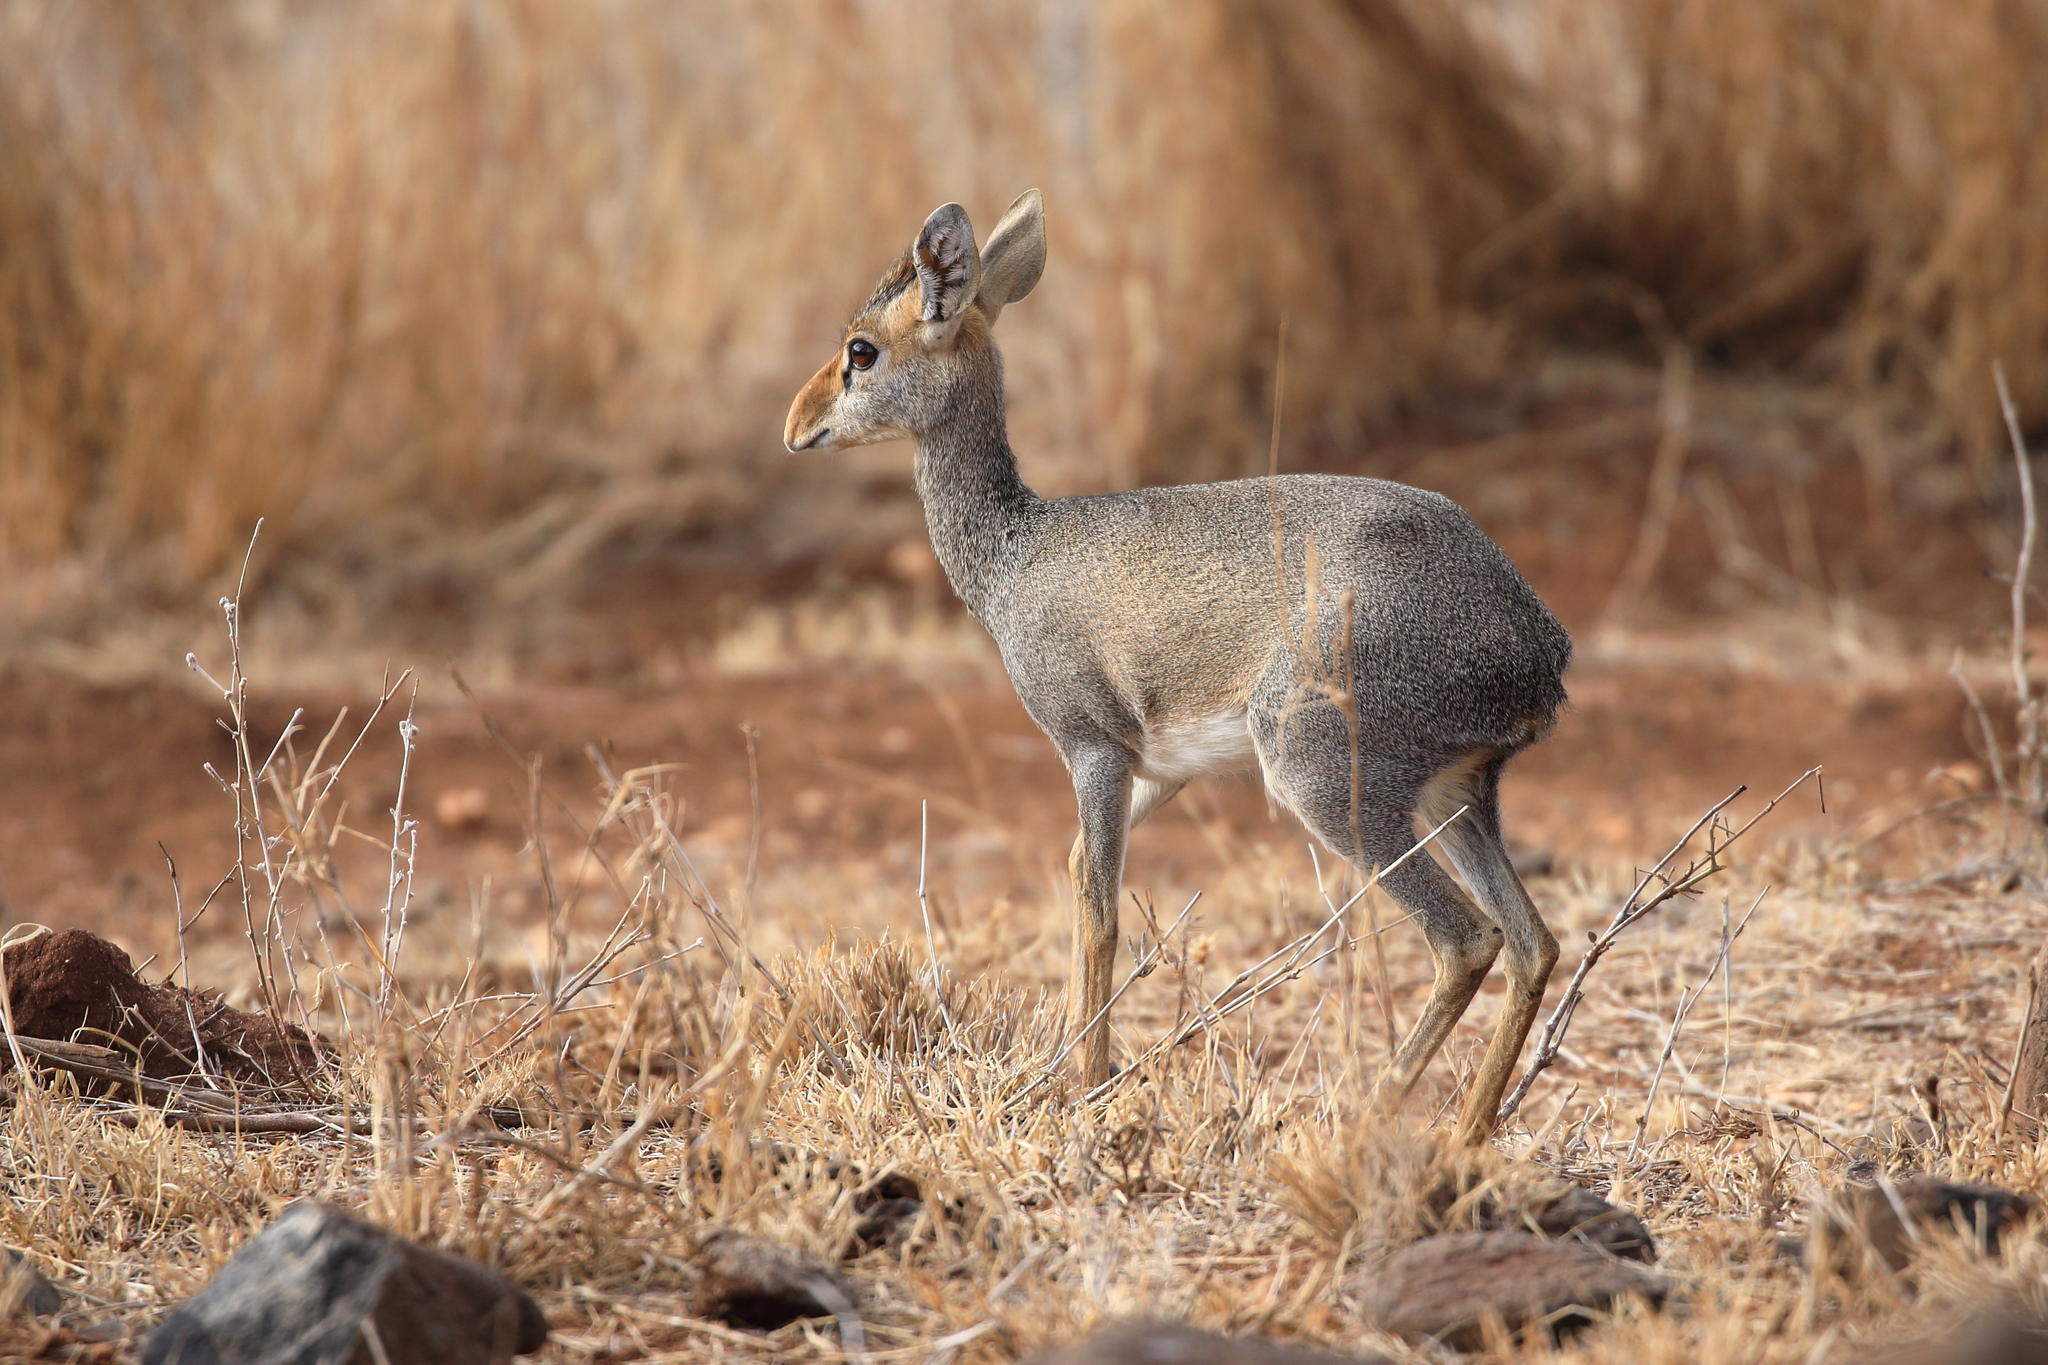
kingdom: Animalia
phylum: Chordata
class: Mammalia
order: Artiodactyla
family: Bovidae
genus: Madoqua
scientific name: Madoqua guentheri
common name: Günther's dikdik
